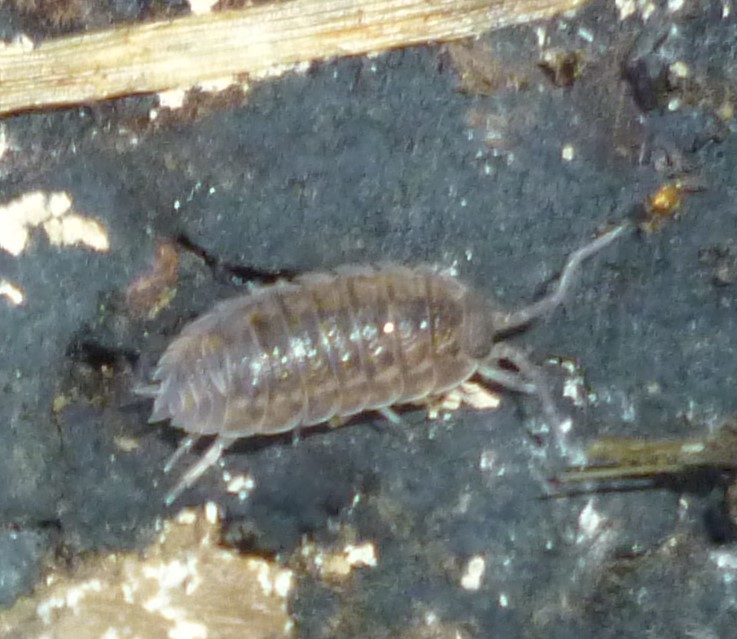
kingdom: Animalia
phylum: Arthropoda
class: Malacostraca
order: Isopoda
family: Trachelipodidae
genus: Trachelipus
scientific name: Trachelipus rathkii
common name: Isopod
